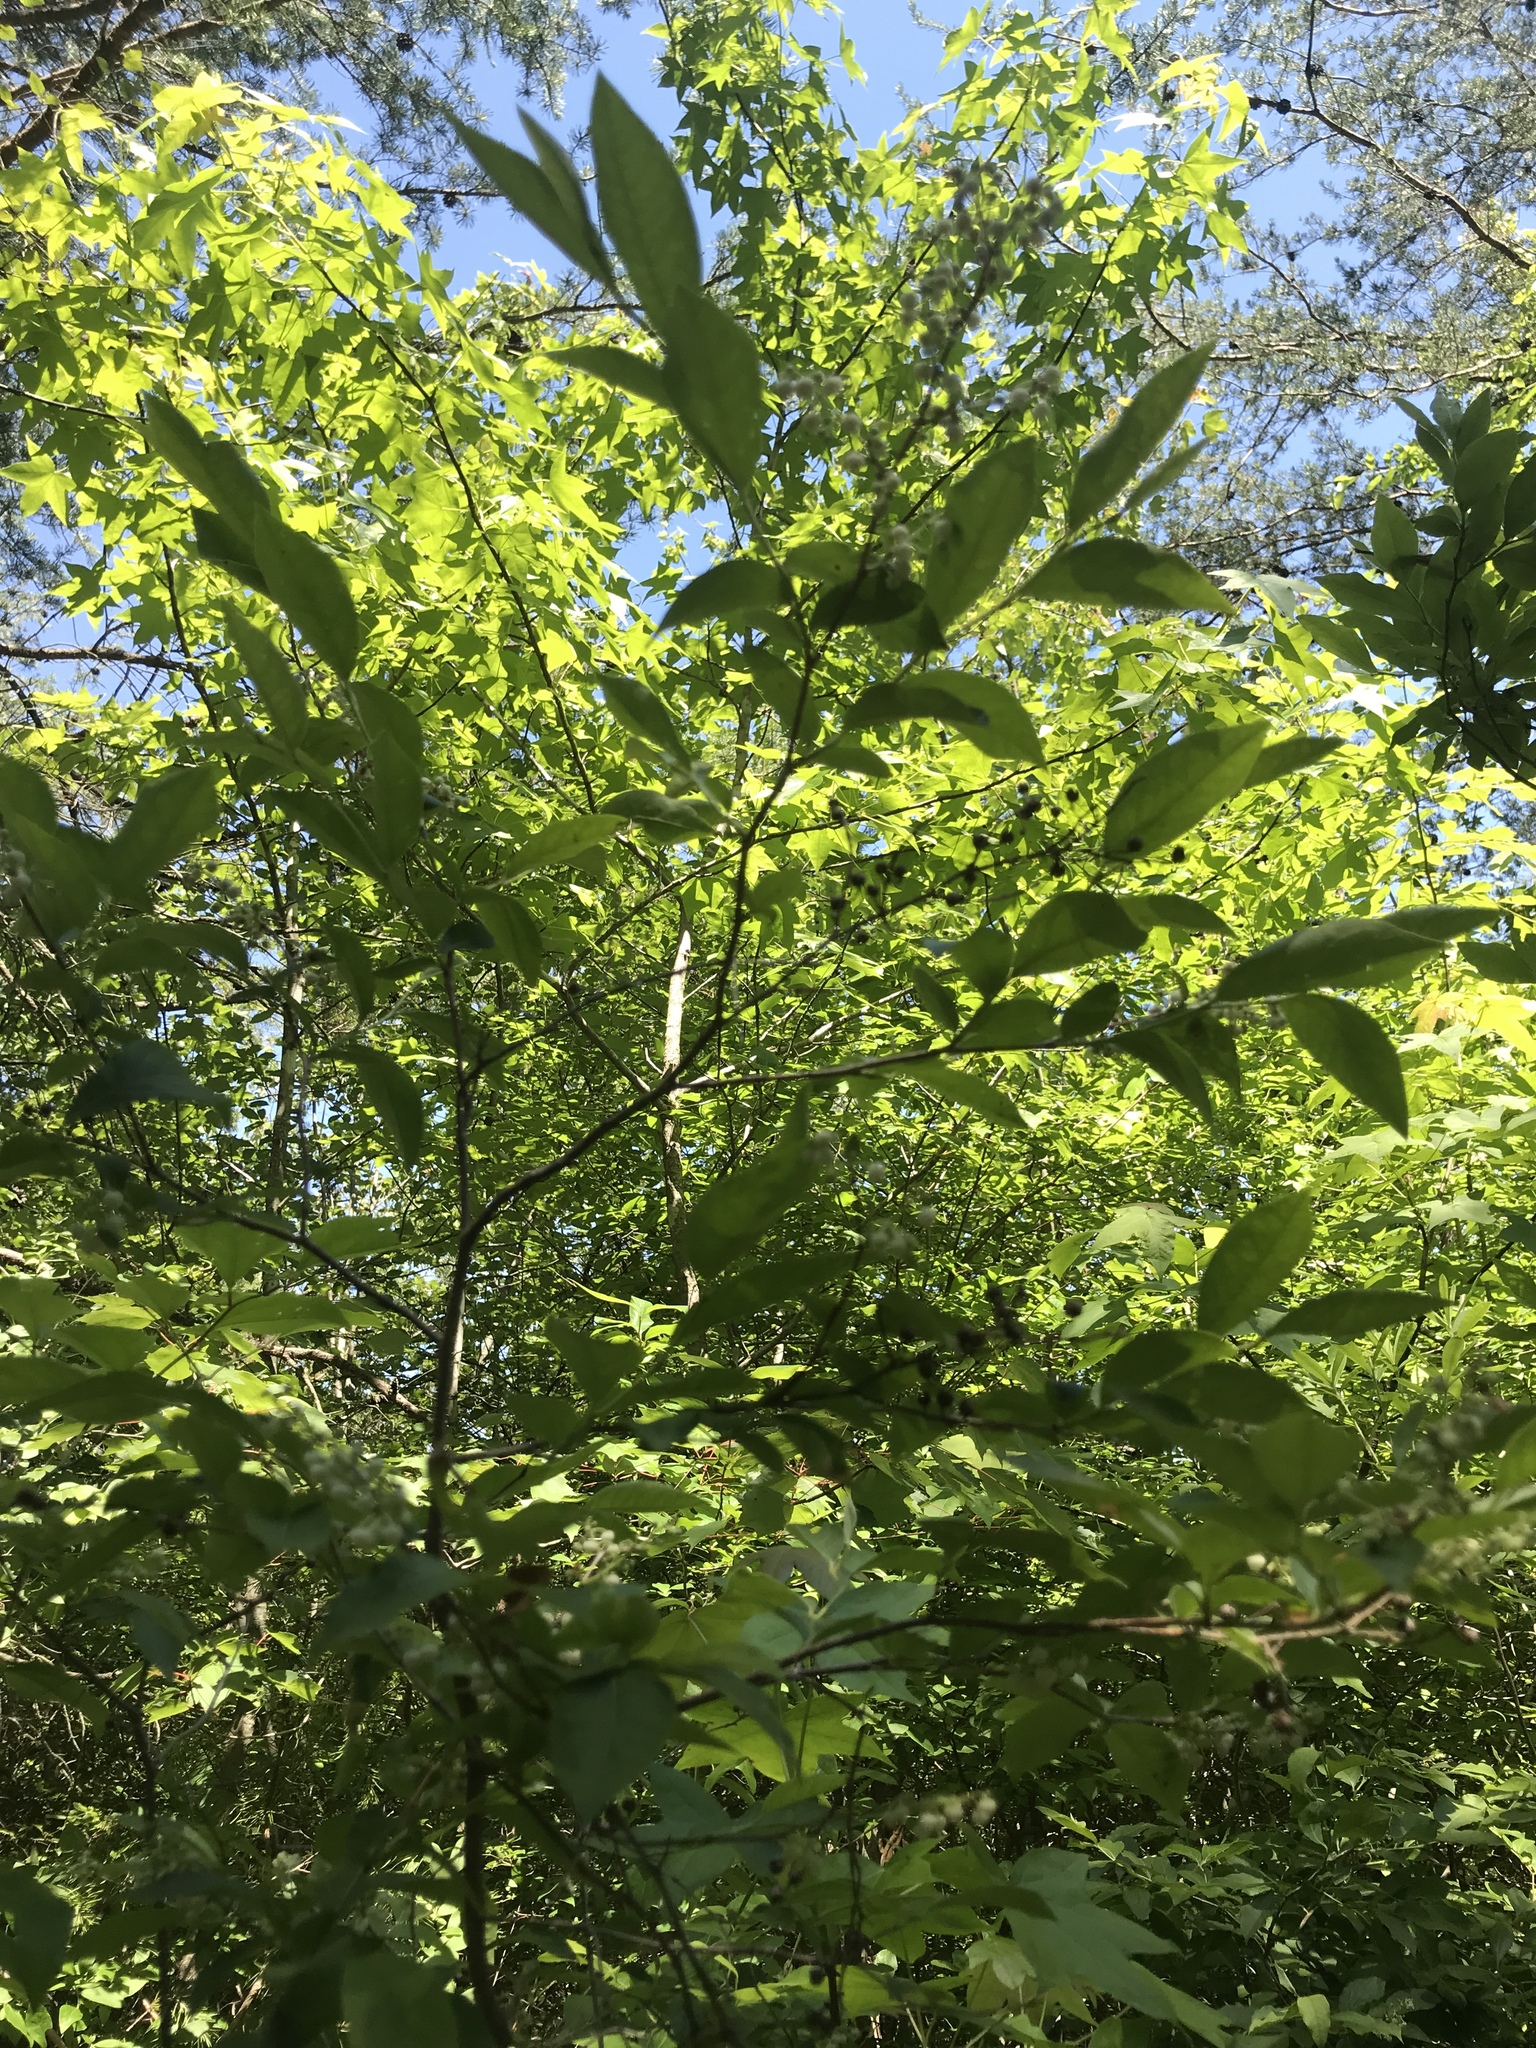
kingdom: Plantae
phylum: Tracheophyta
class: Magnoliopsida
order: Ericales
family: Ericaceae
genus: Lyonia
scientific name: Lyonia ligustrina
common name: Maleberry
